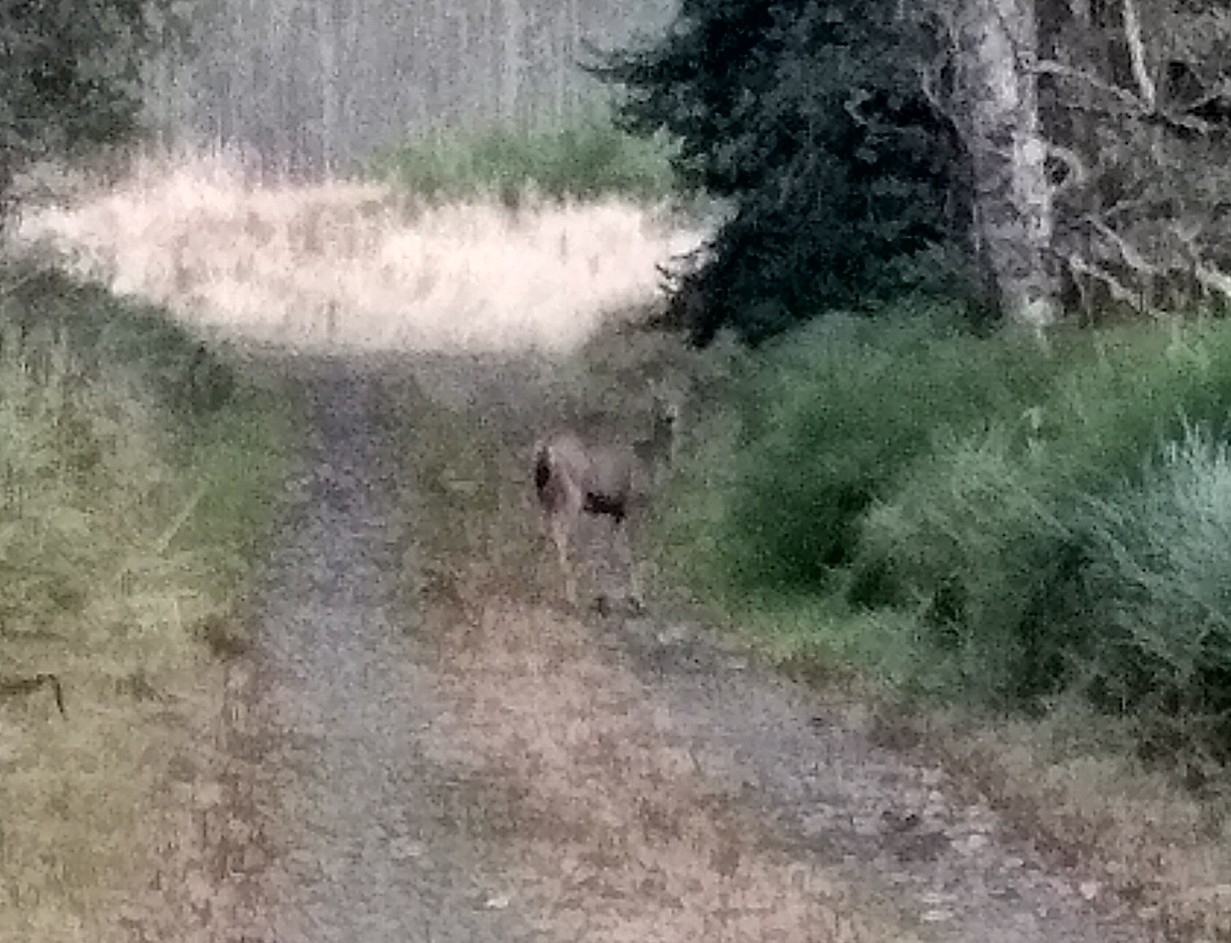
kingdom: Animalia
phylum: Chordata
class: Mammalia
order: Artiodactyla
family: Cervidae
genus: Odocoileus
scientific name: Odocoileus hemionus
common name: Mule deer
